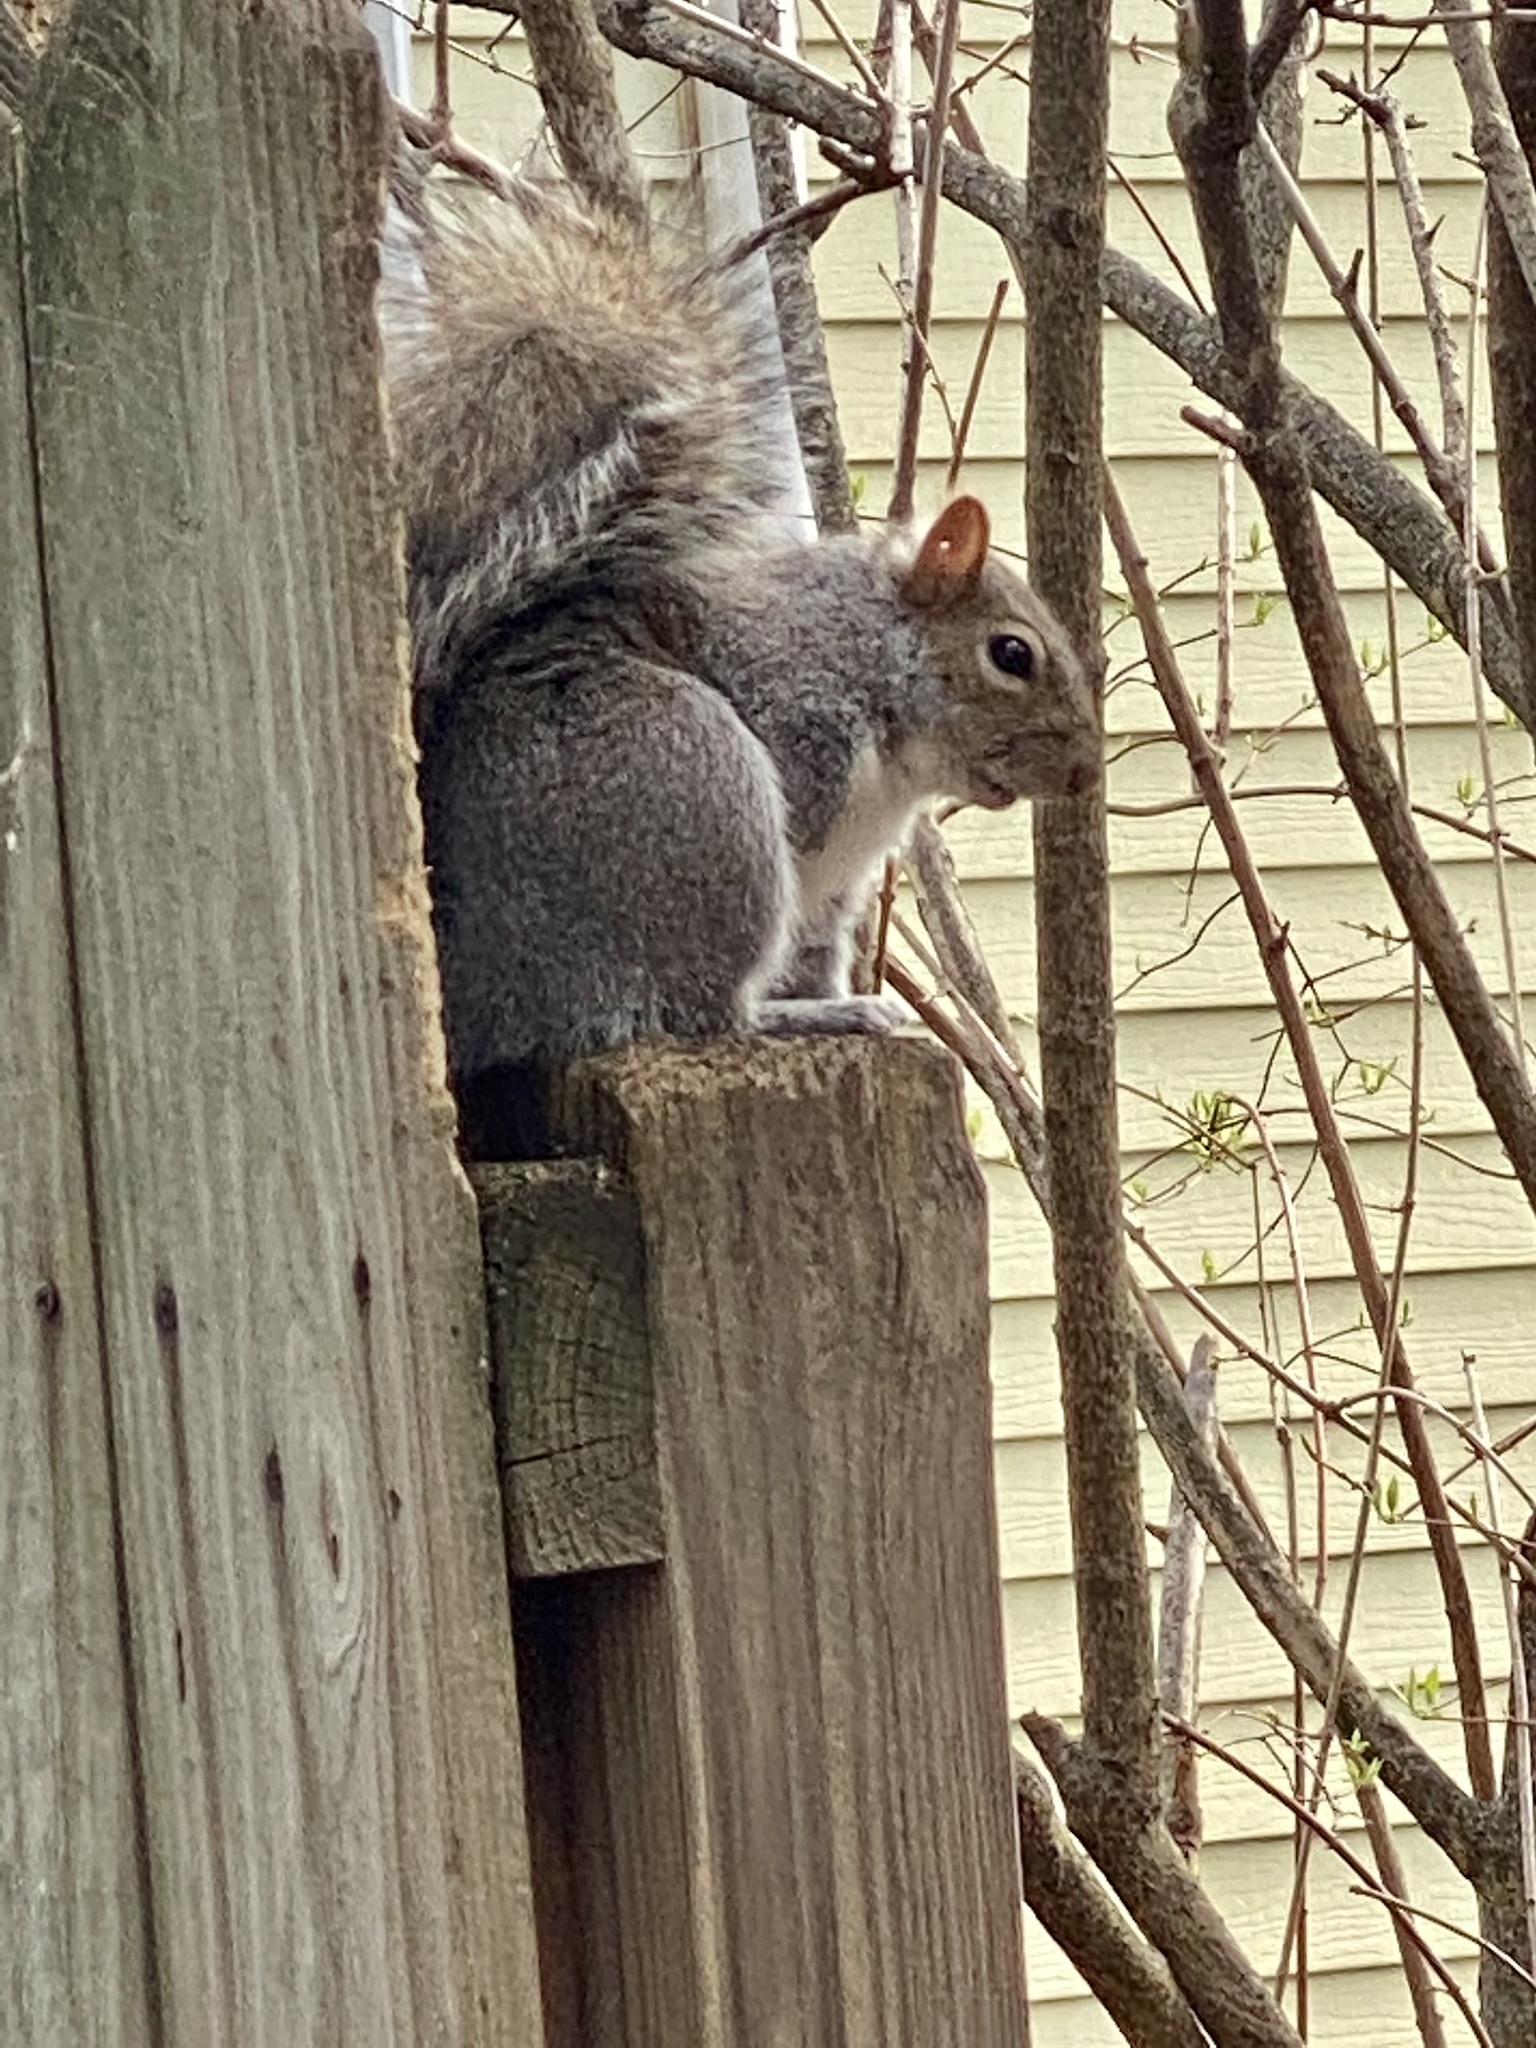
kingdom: Animalia
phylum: Chordata
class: Mammalia
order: Rodentia
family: Sciuridae
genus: Sciurus
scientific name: Sciurus carolinensis
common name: Eastern gray squirrel
